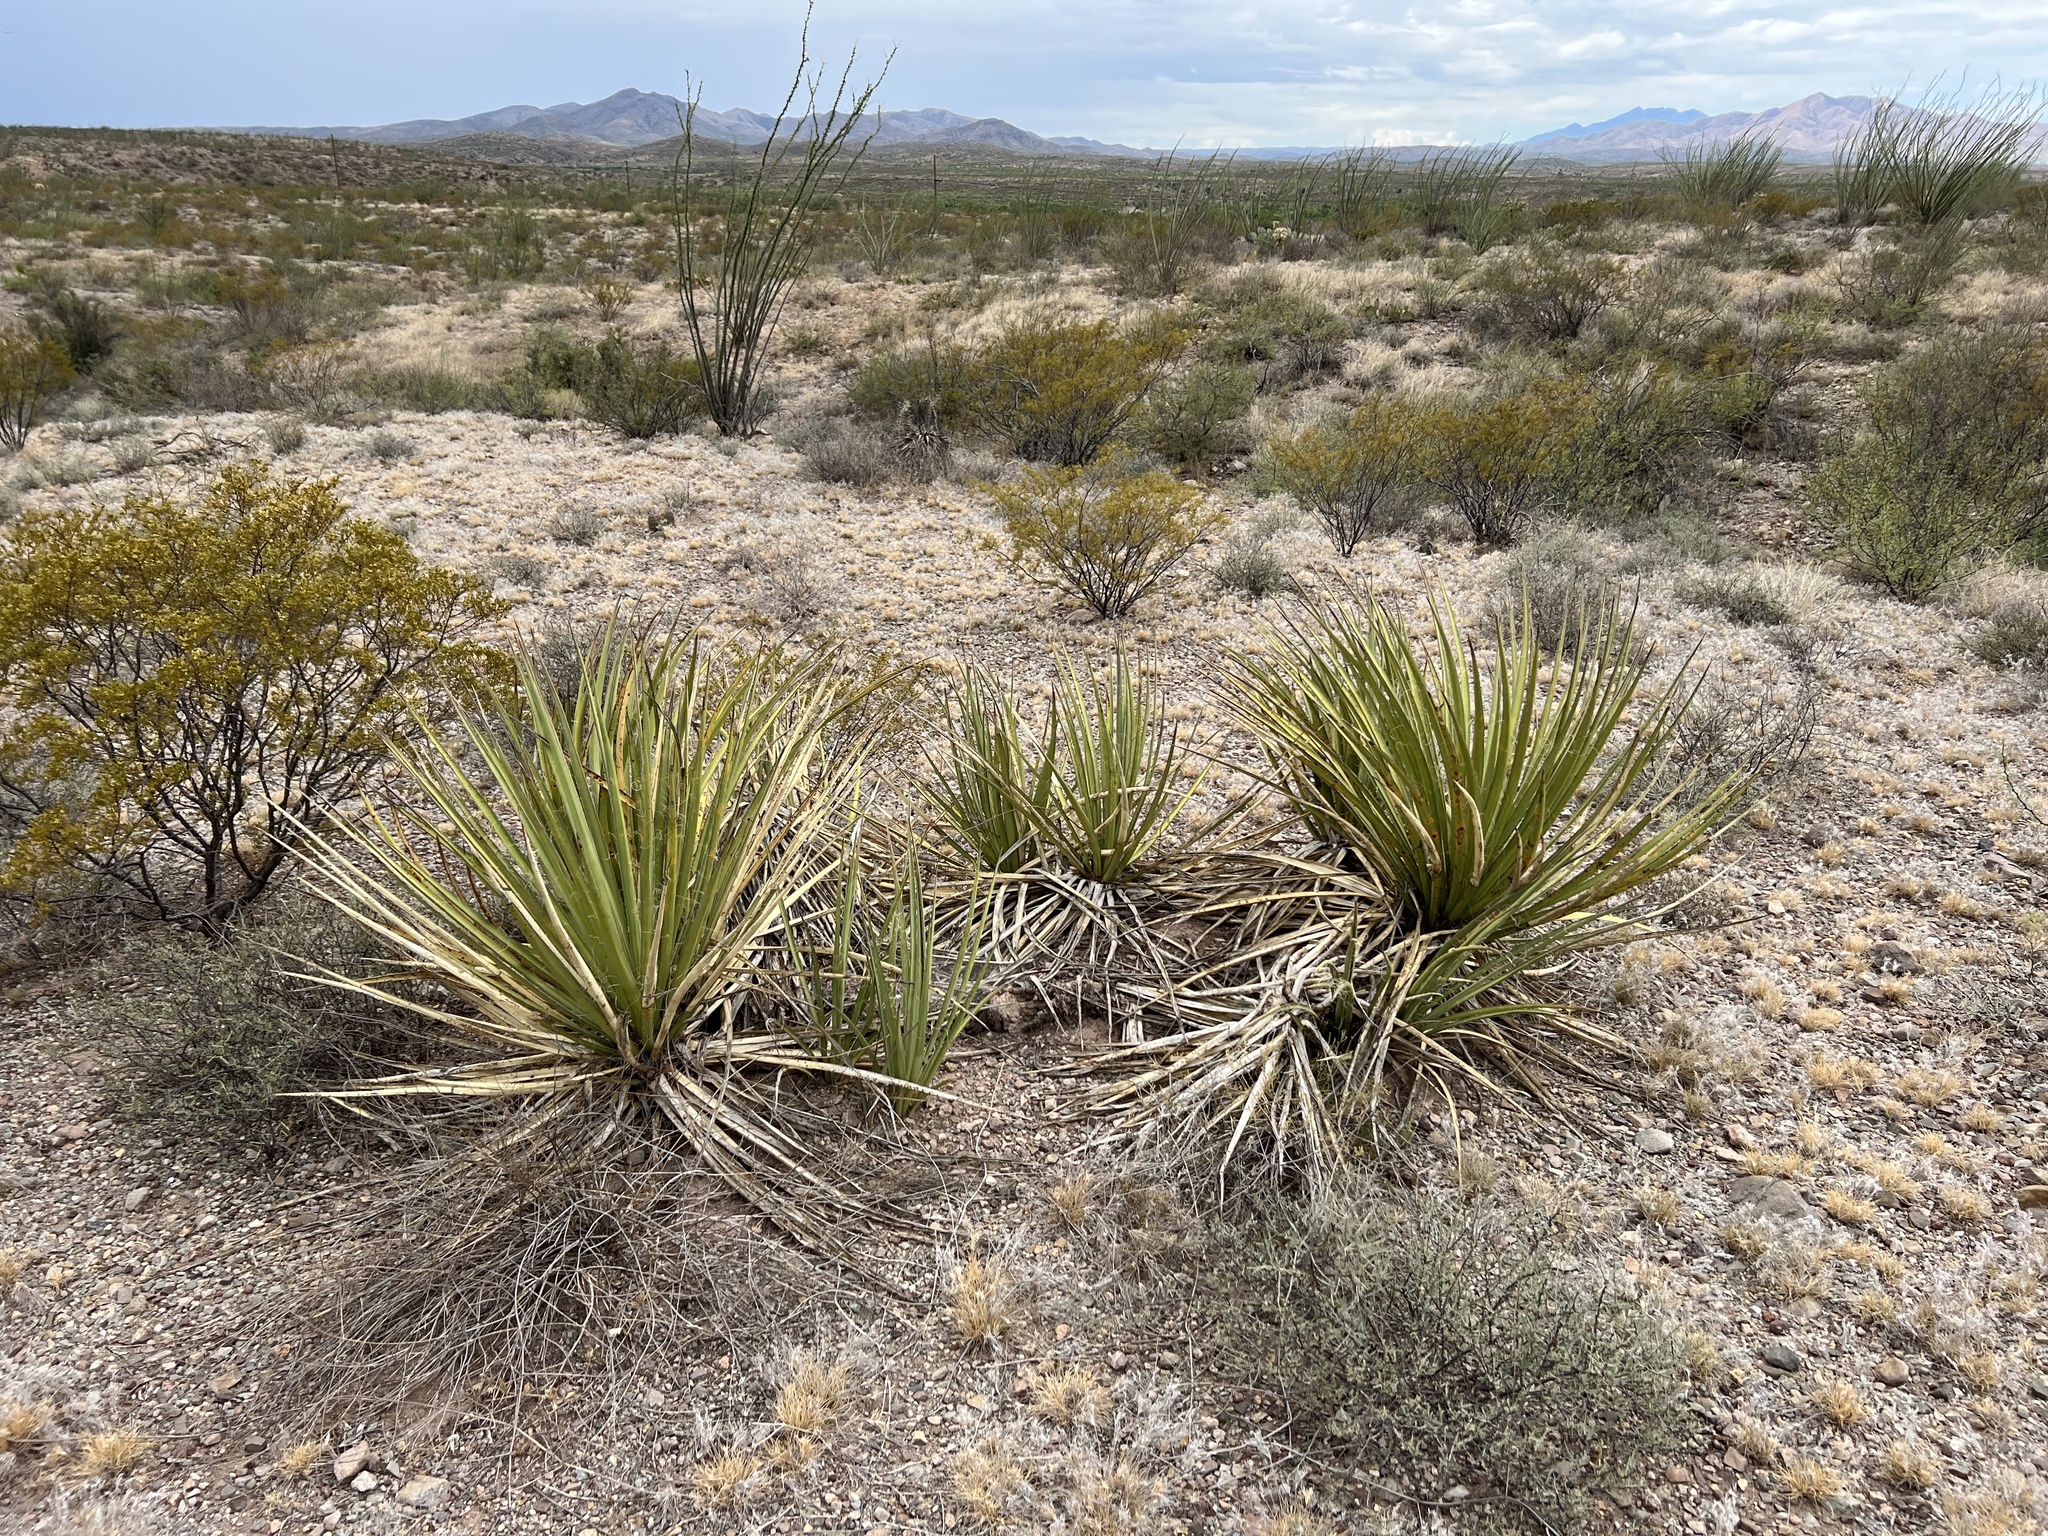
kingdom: Plantae
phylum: Tracheophyta
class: Liliopsida
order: Asparagales
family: Asparagaceae
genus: Yucca
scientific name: Yucca baccata
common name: Banana yucca
